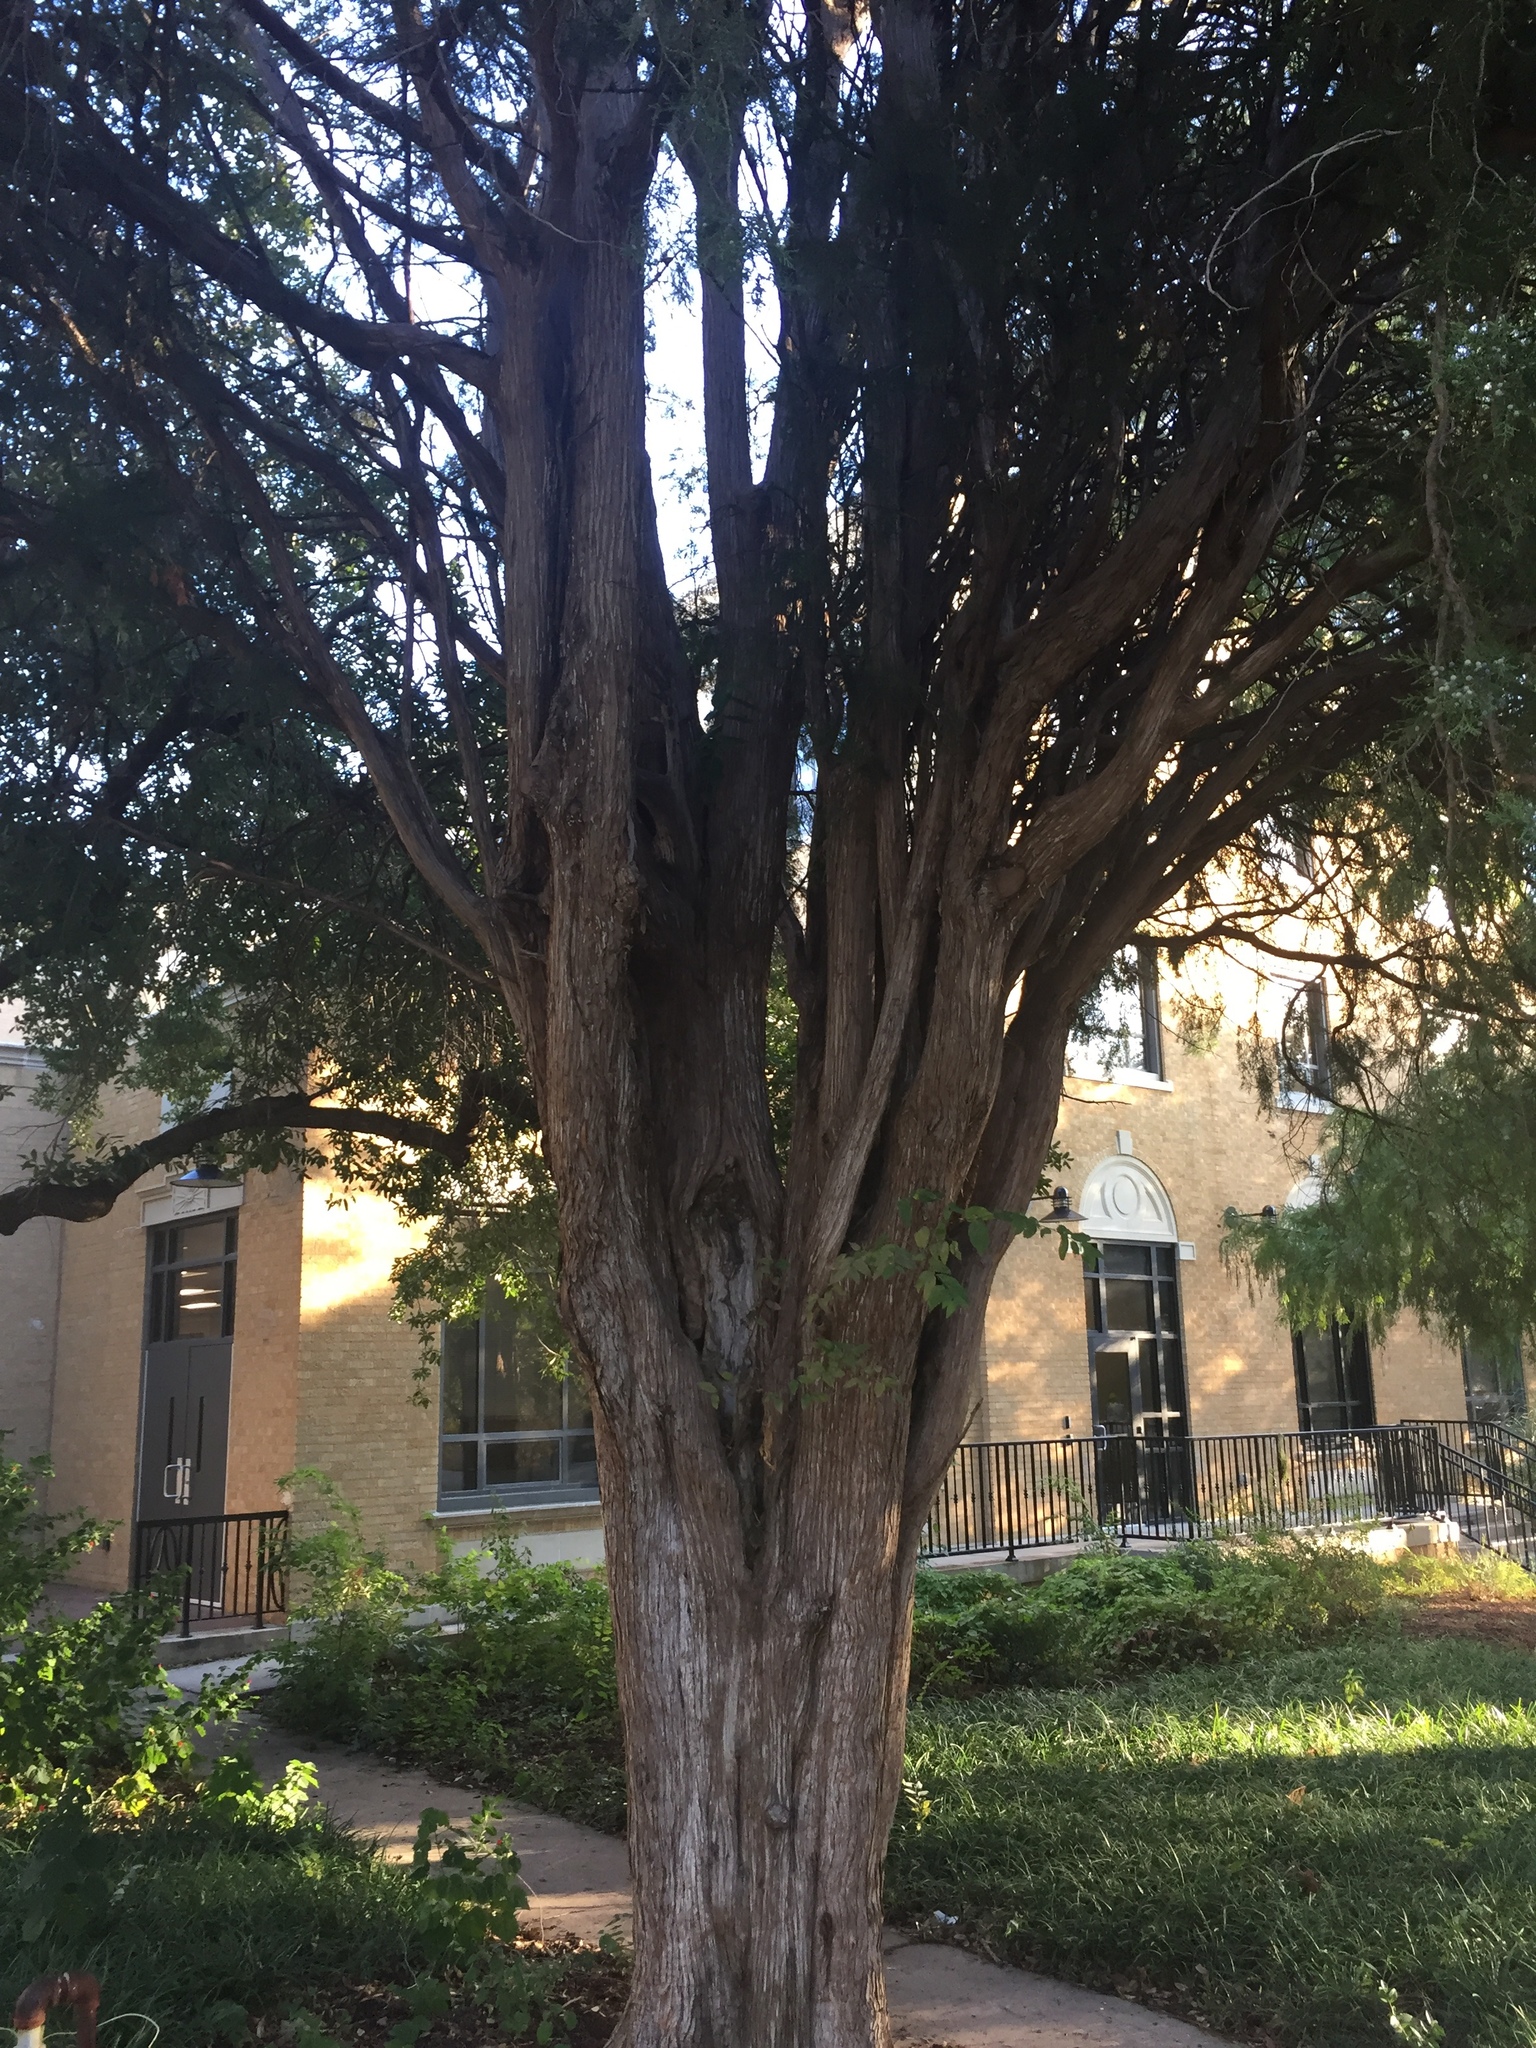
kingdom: Plantae
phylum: Tracheophyta
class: Pinopsida
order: Pinales
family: Cupressaceae
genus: Juniperus
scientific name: Juniperus virginiana
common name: Red juniper
